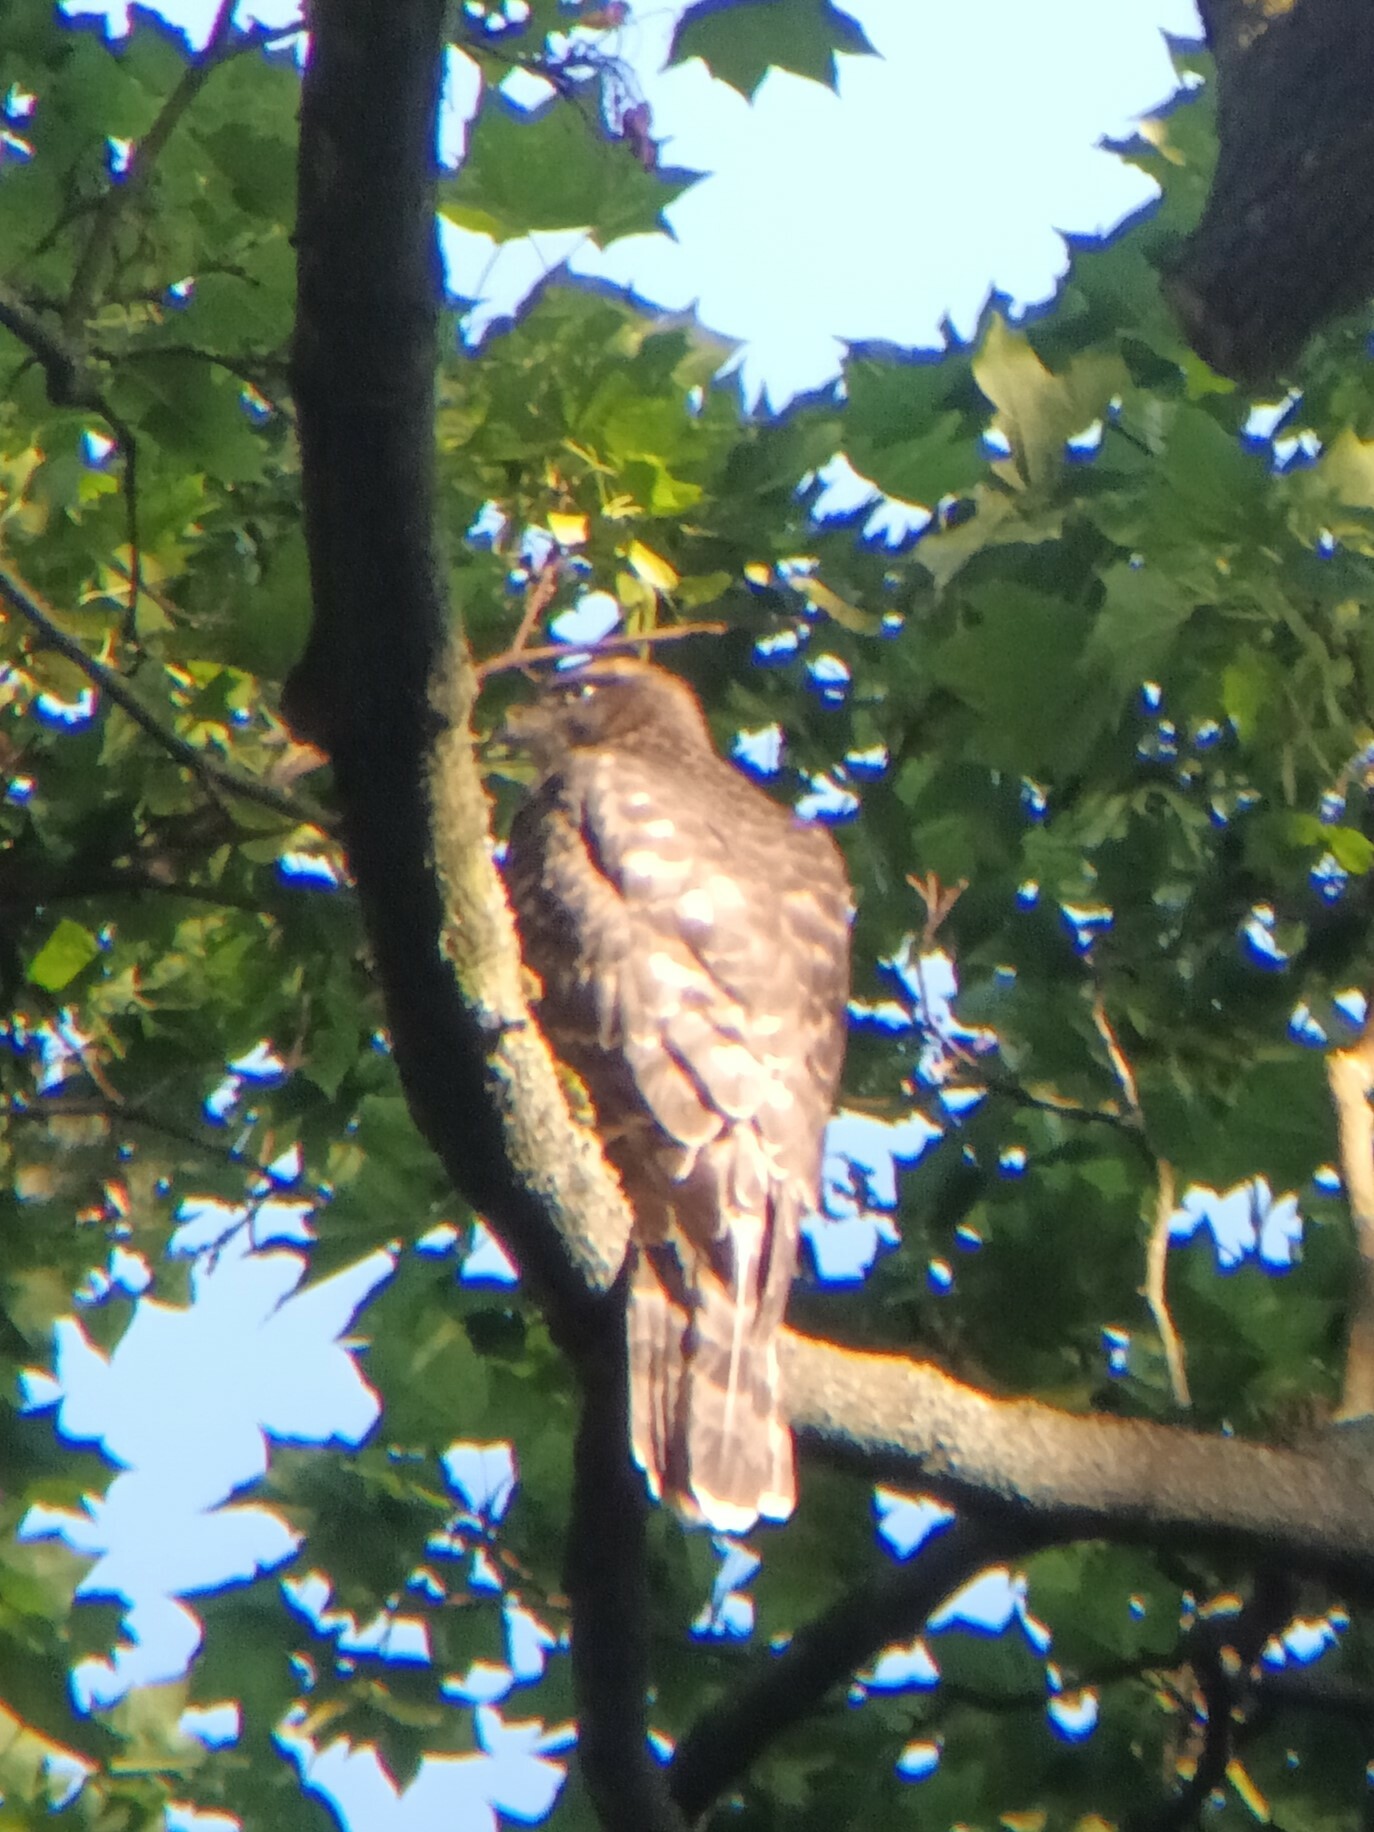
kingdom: Animalia
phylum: Chordata
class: Aves
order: Accipitriformes
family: Accipitridae
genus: Accipiter
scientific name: Accipiter gentilis
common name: Northern goshawk
